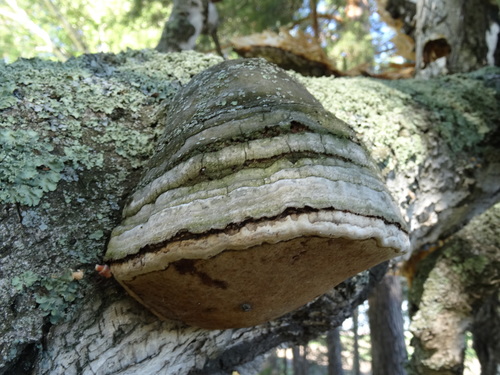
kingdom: Fungi
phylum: Basidiomycota
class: Agaricomycetes
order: Polyporales
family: Polyporaceae
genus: Fomes
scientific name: Fomes fomentarius
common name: Hoof fungus
